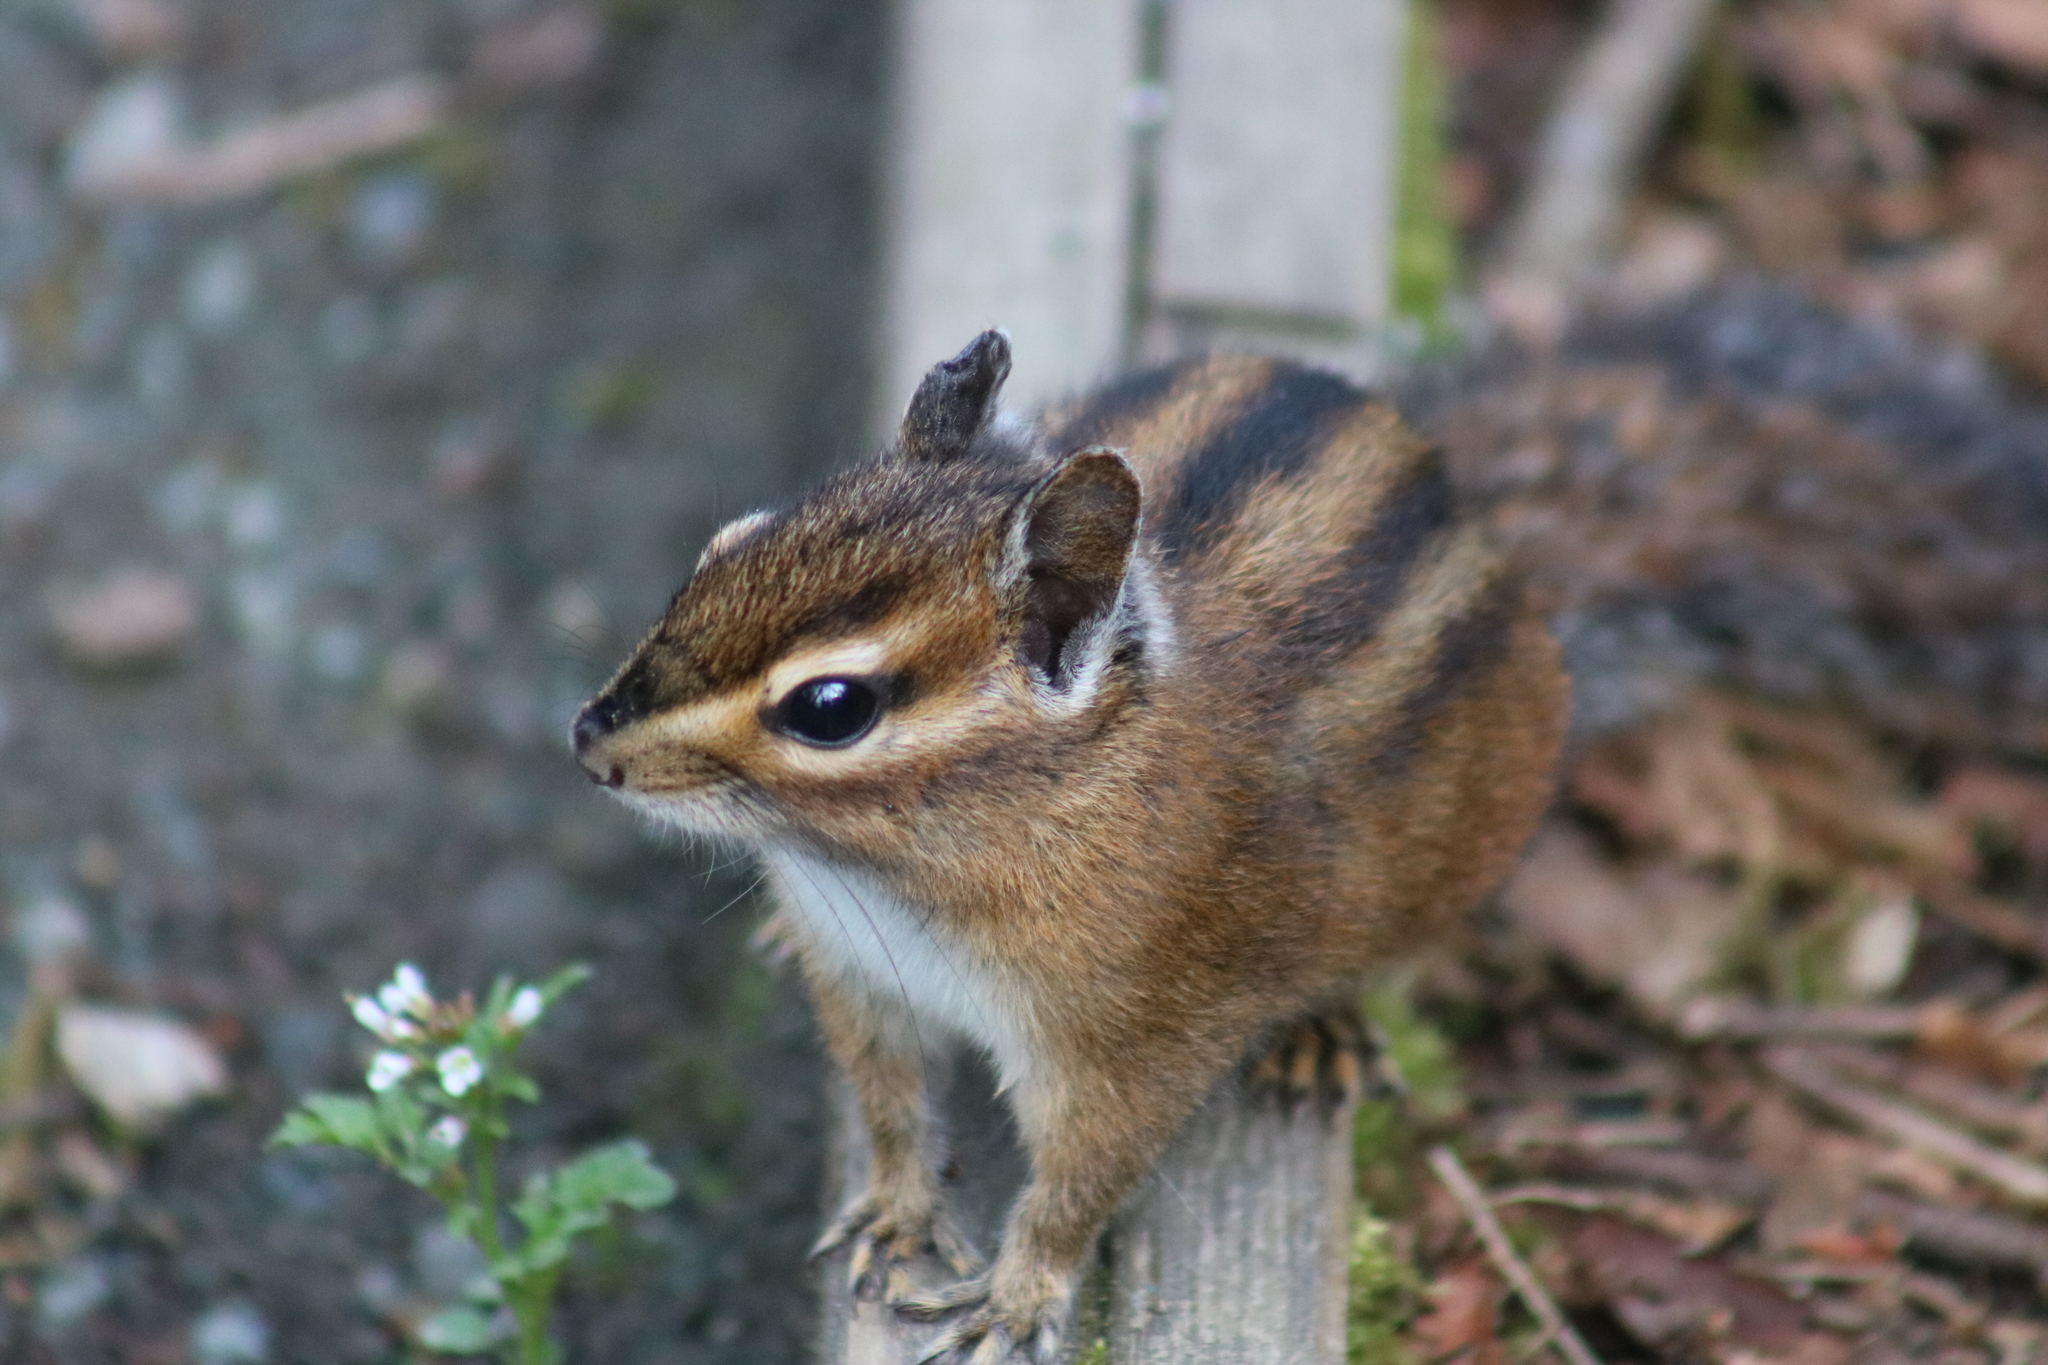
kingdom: Animalia
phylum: Chordata
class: Mammalia
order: Rodentia
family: Sciuridae
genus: Tamias
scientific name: Tamias townsendii
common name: Townsend's chipmunk
